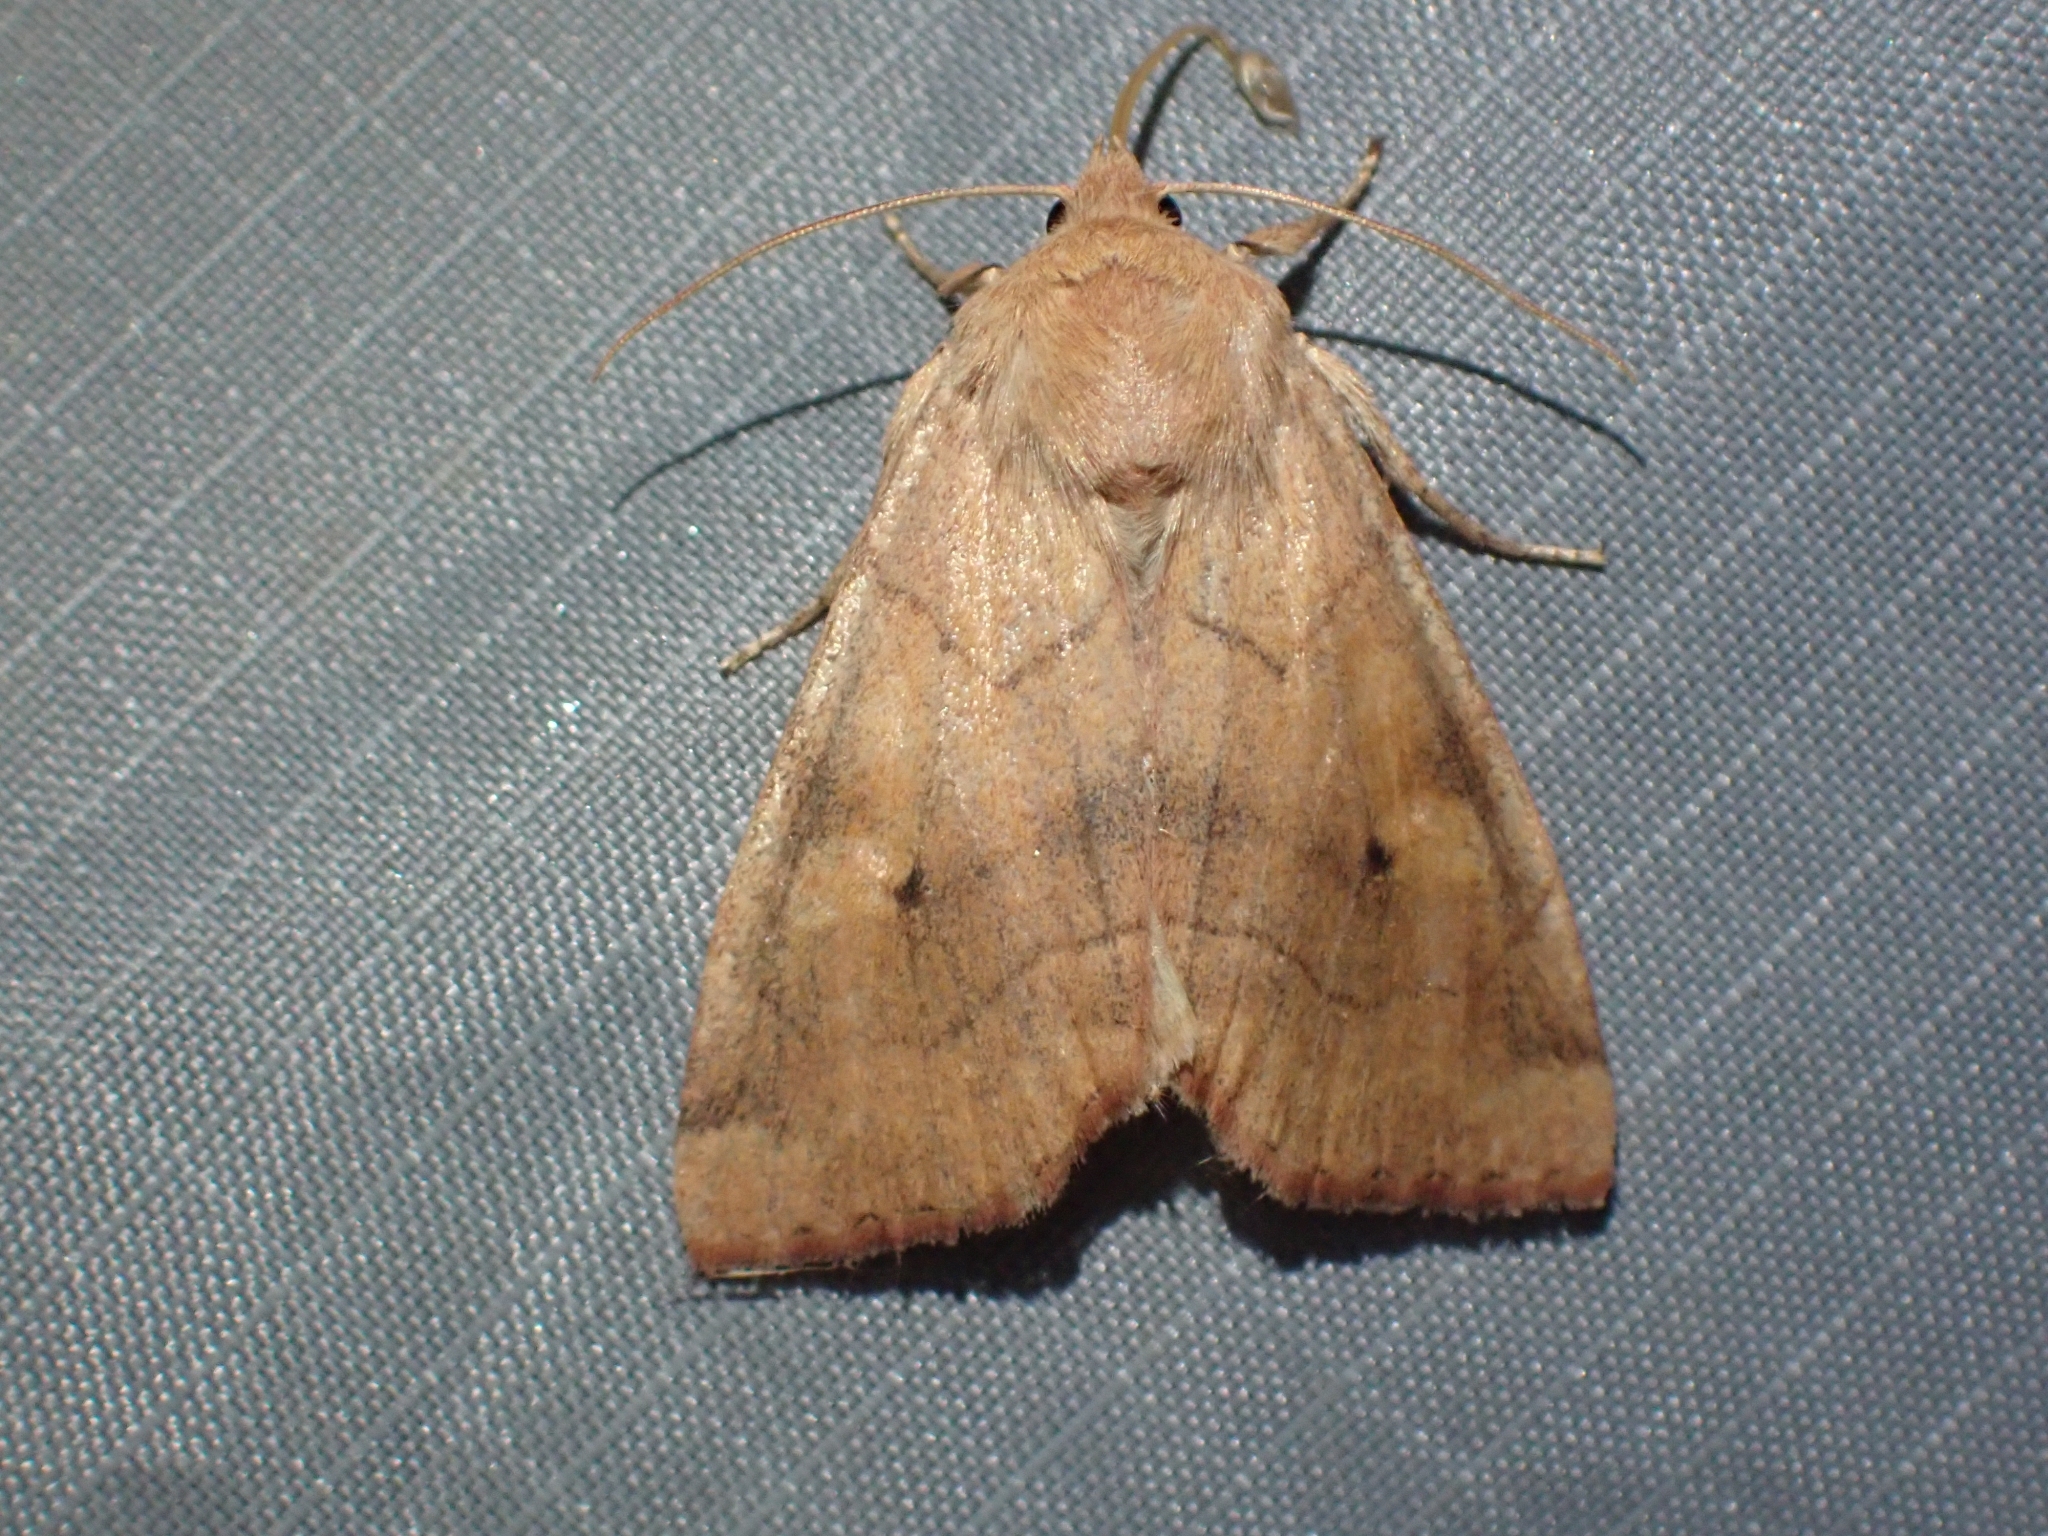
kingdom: Animalia
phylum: Arthropoda
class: Insecta
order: Lepidoptera
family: Noctuidae
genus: Enargia
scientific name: Enargia infumata
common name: Smoked sallow
